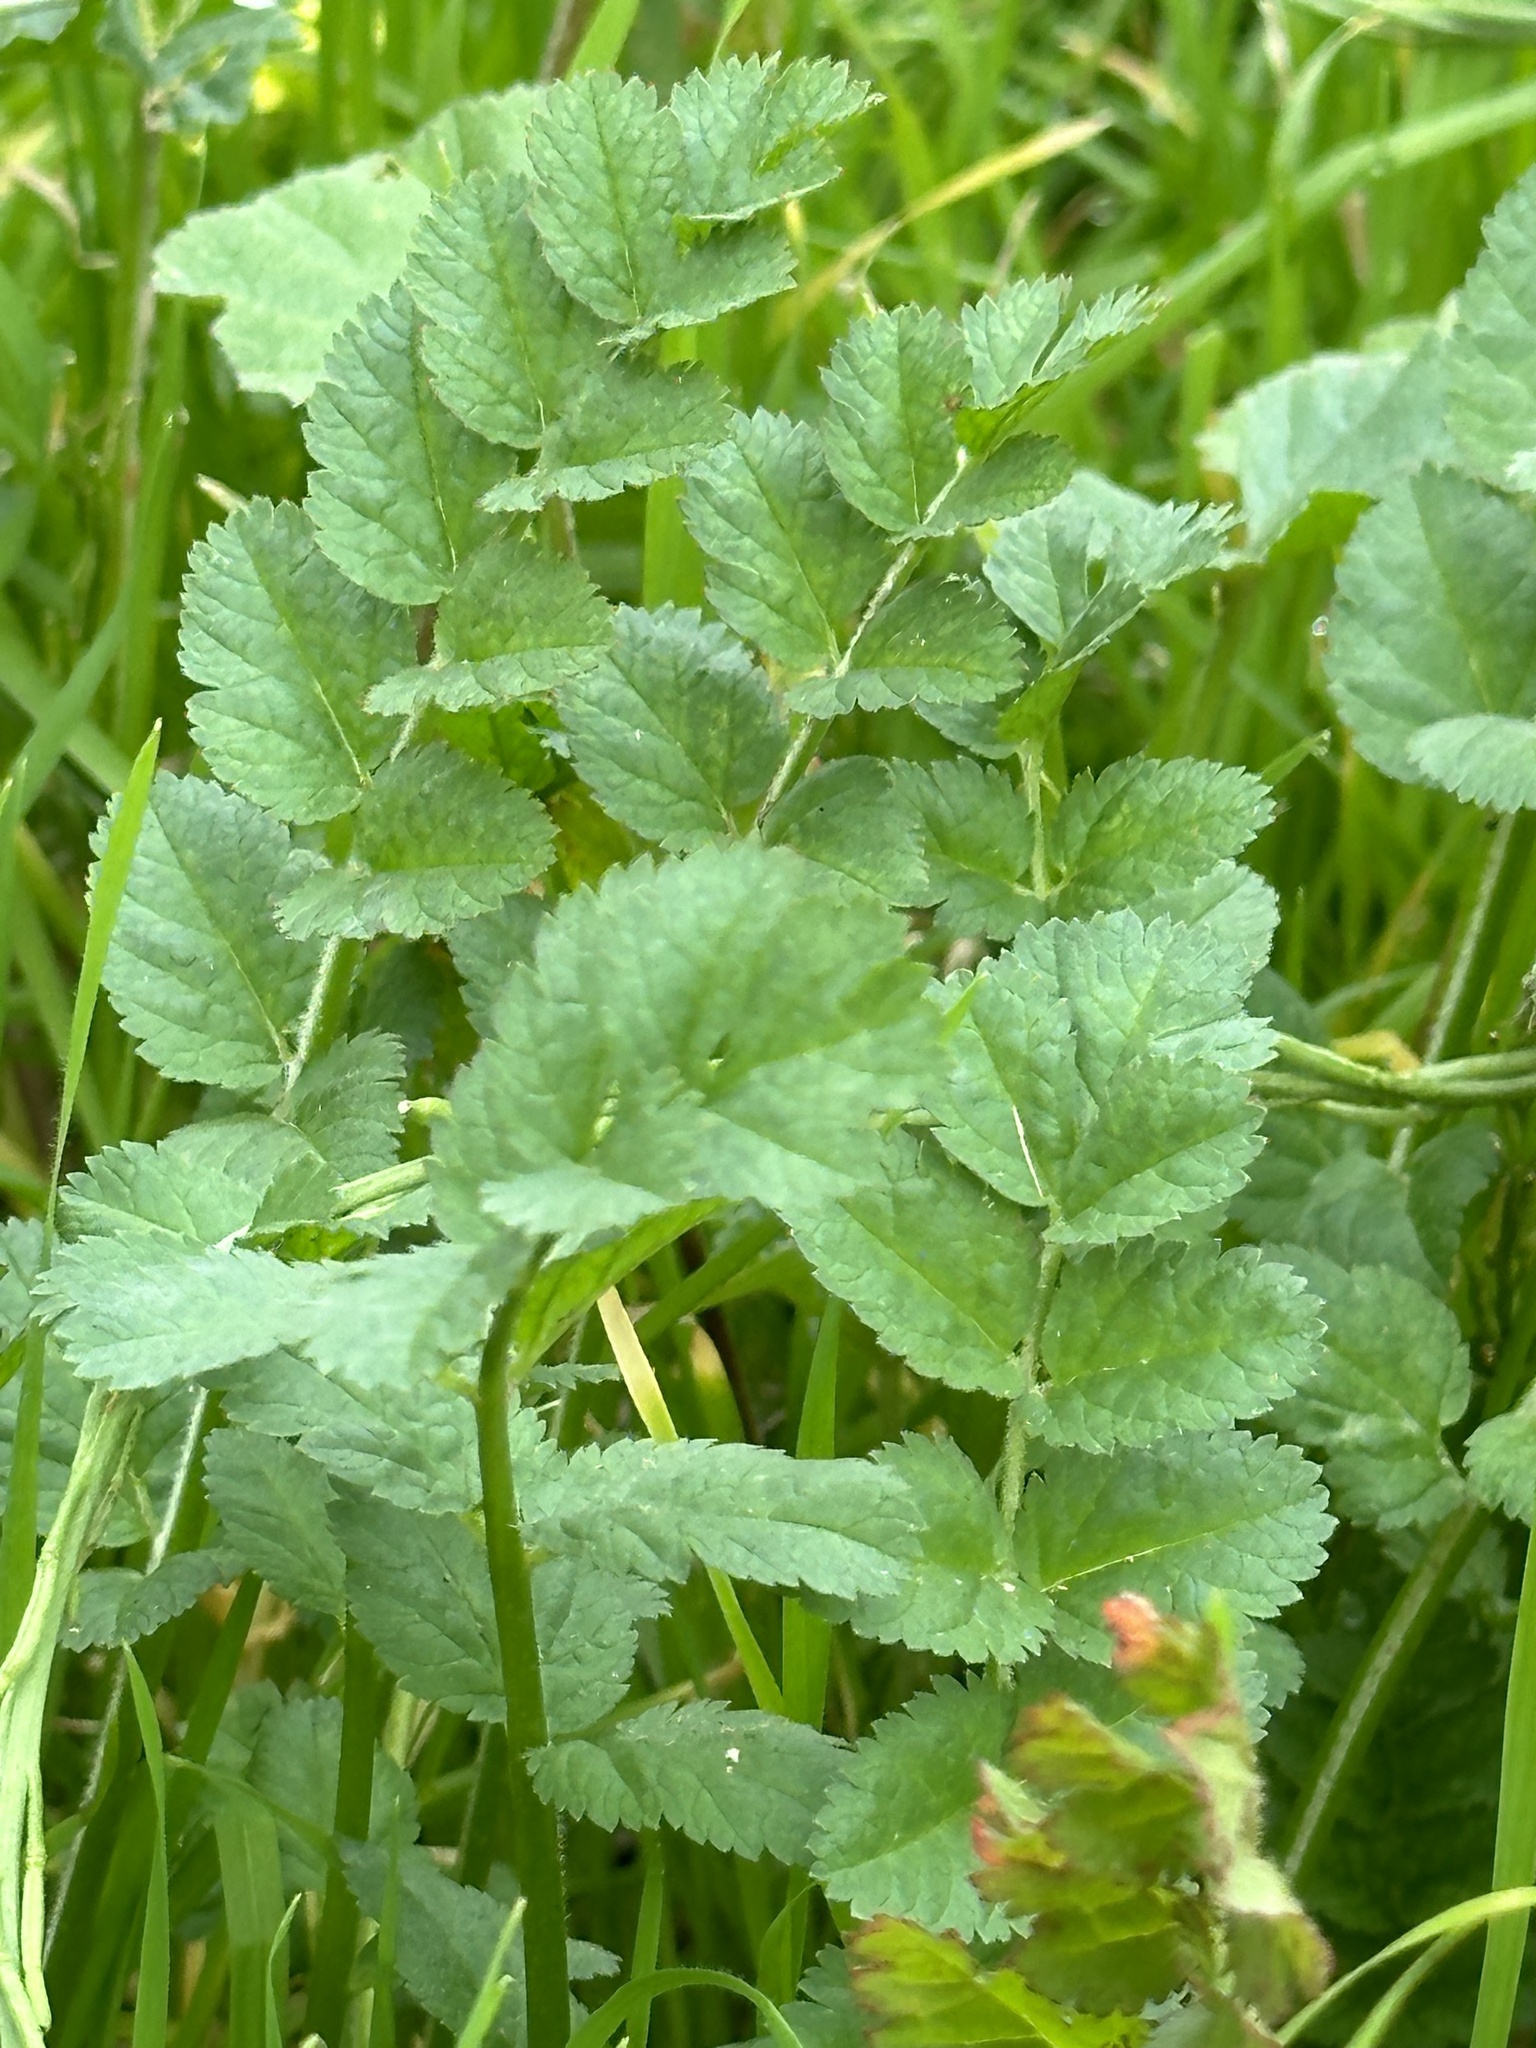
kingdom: Plantae
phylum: Tracheophyta
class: Magnoliopsida
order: Brassicales
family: Brassicaceae
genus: Hirschfeldia
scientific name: Hirschfeldia incana
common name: Hoary mustard
